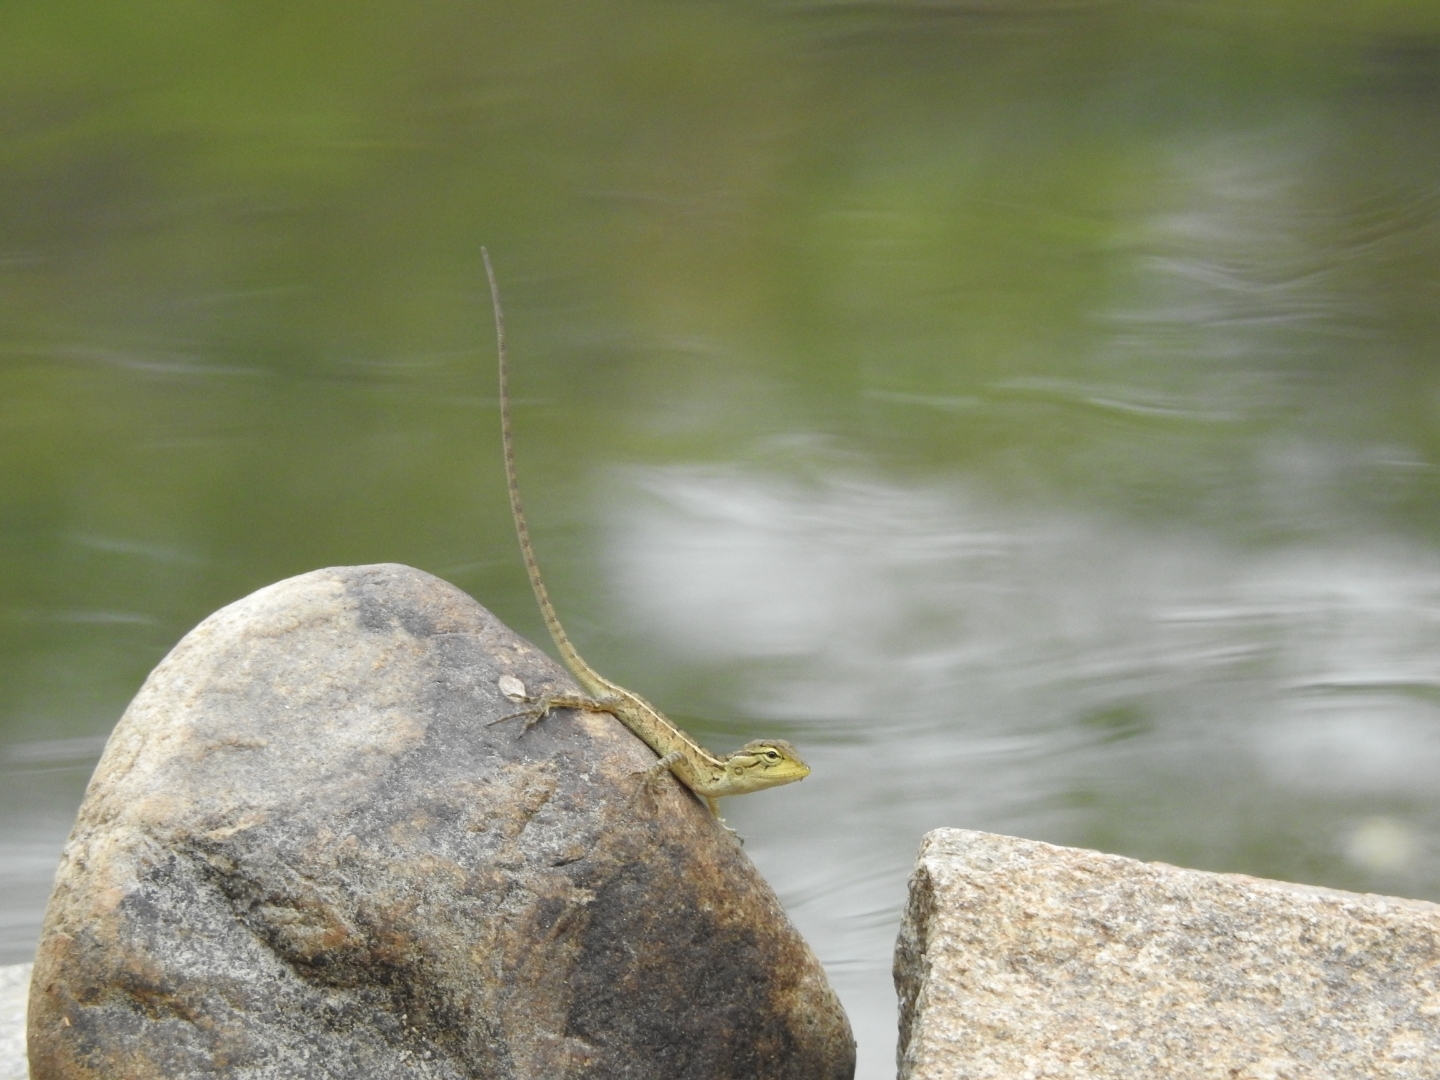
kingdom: Animalia
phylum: Chordata
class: Squamata
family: Agamidae
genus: Calotes
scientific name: Calotes versicolor
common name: Oriental garden lizard
